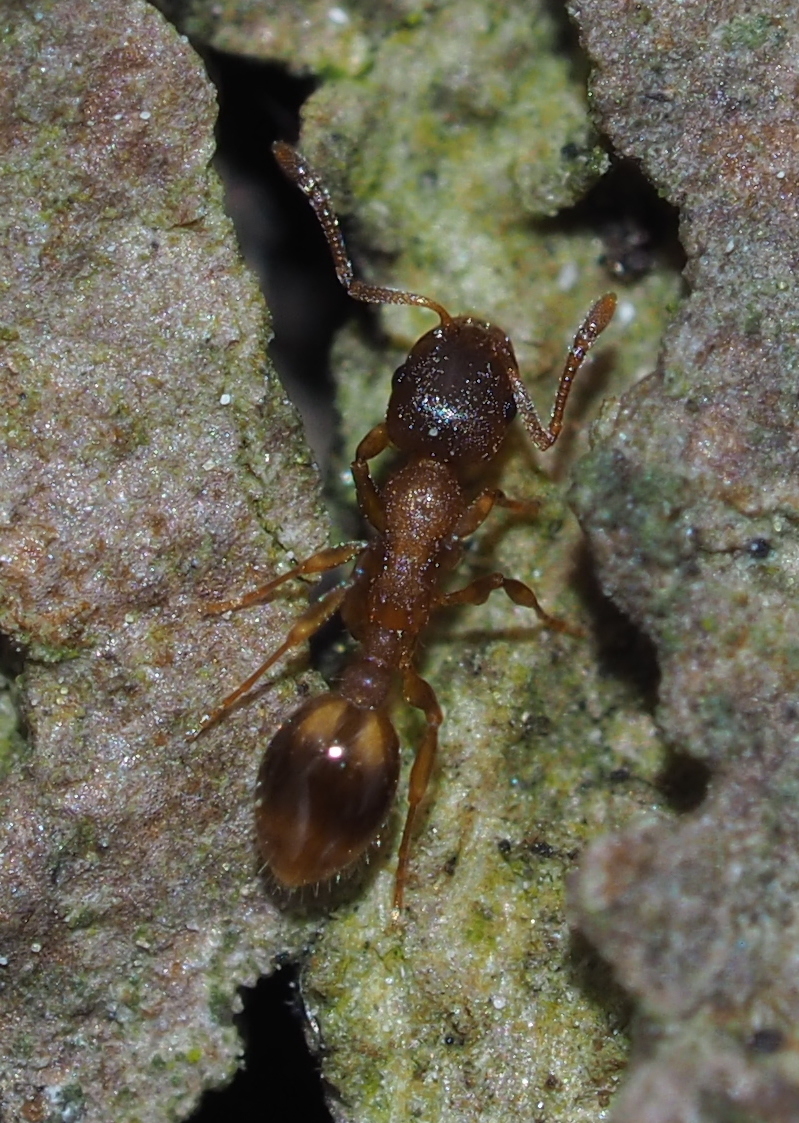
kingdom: Animalia
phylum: Arthropoda
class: Insecta
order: Hymenoptera
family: Formicidae
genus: Temnothorax
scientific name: Temnothorax
